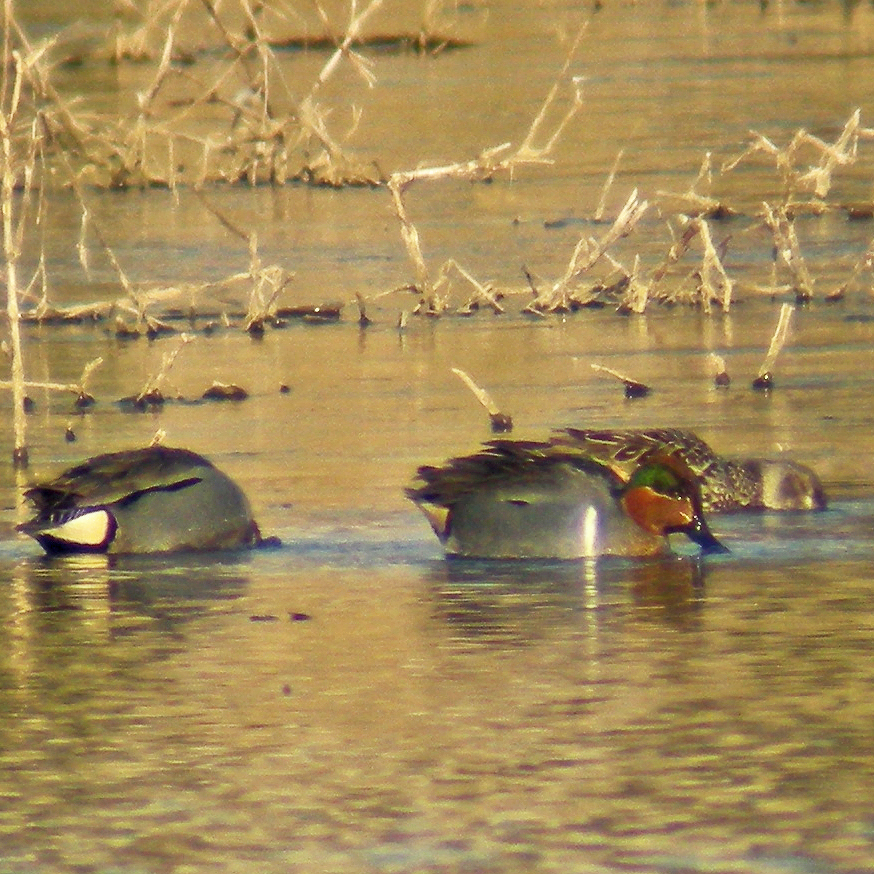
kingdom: Animalia
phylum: Chordata
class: Aves
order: Anseriformes
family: Anatidae
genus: Anas
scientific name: Anas crecca
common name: Eurasian teal
